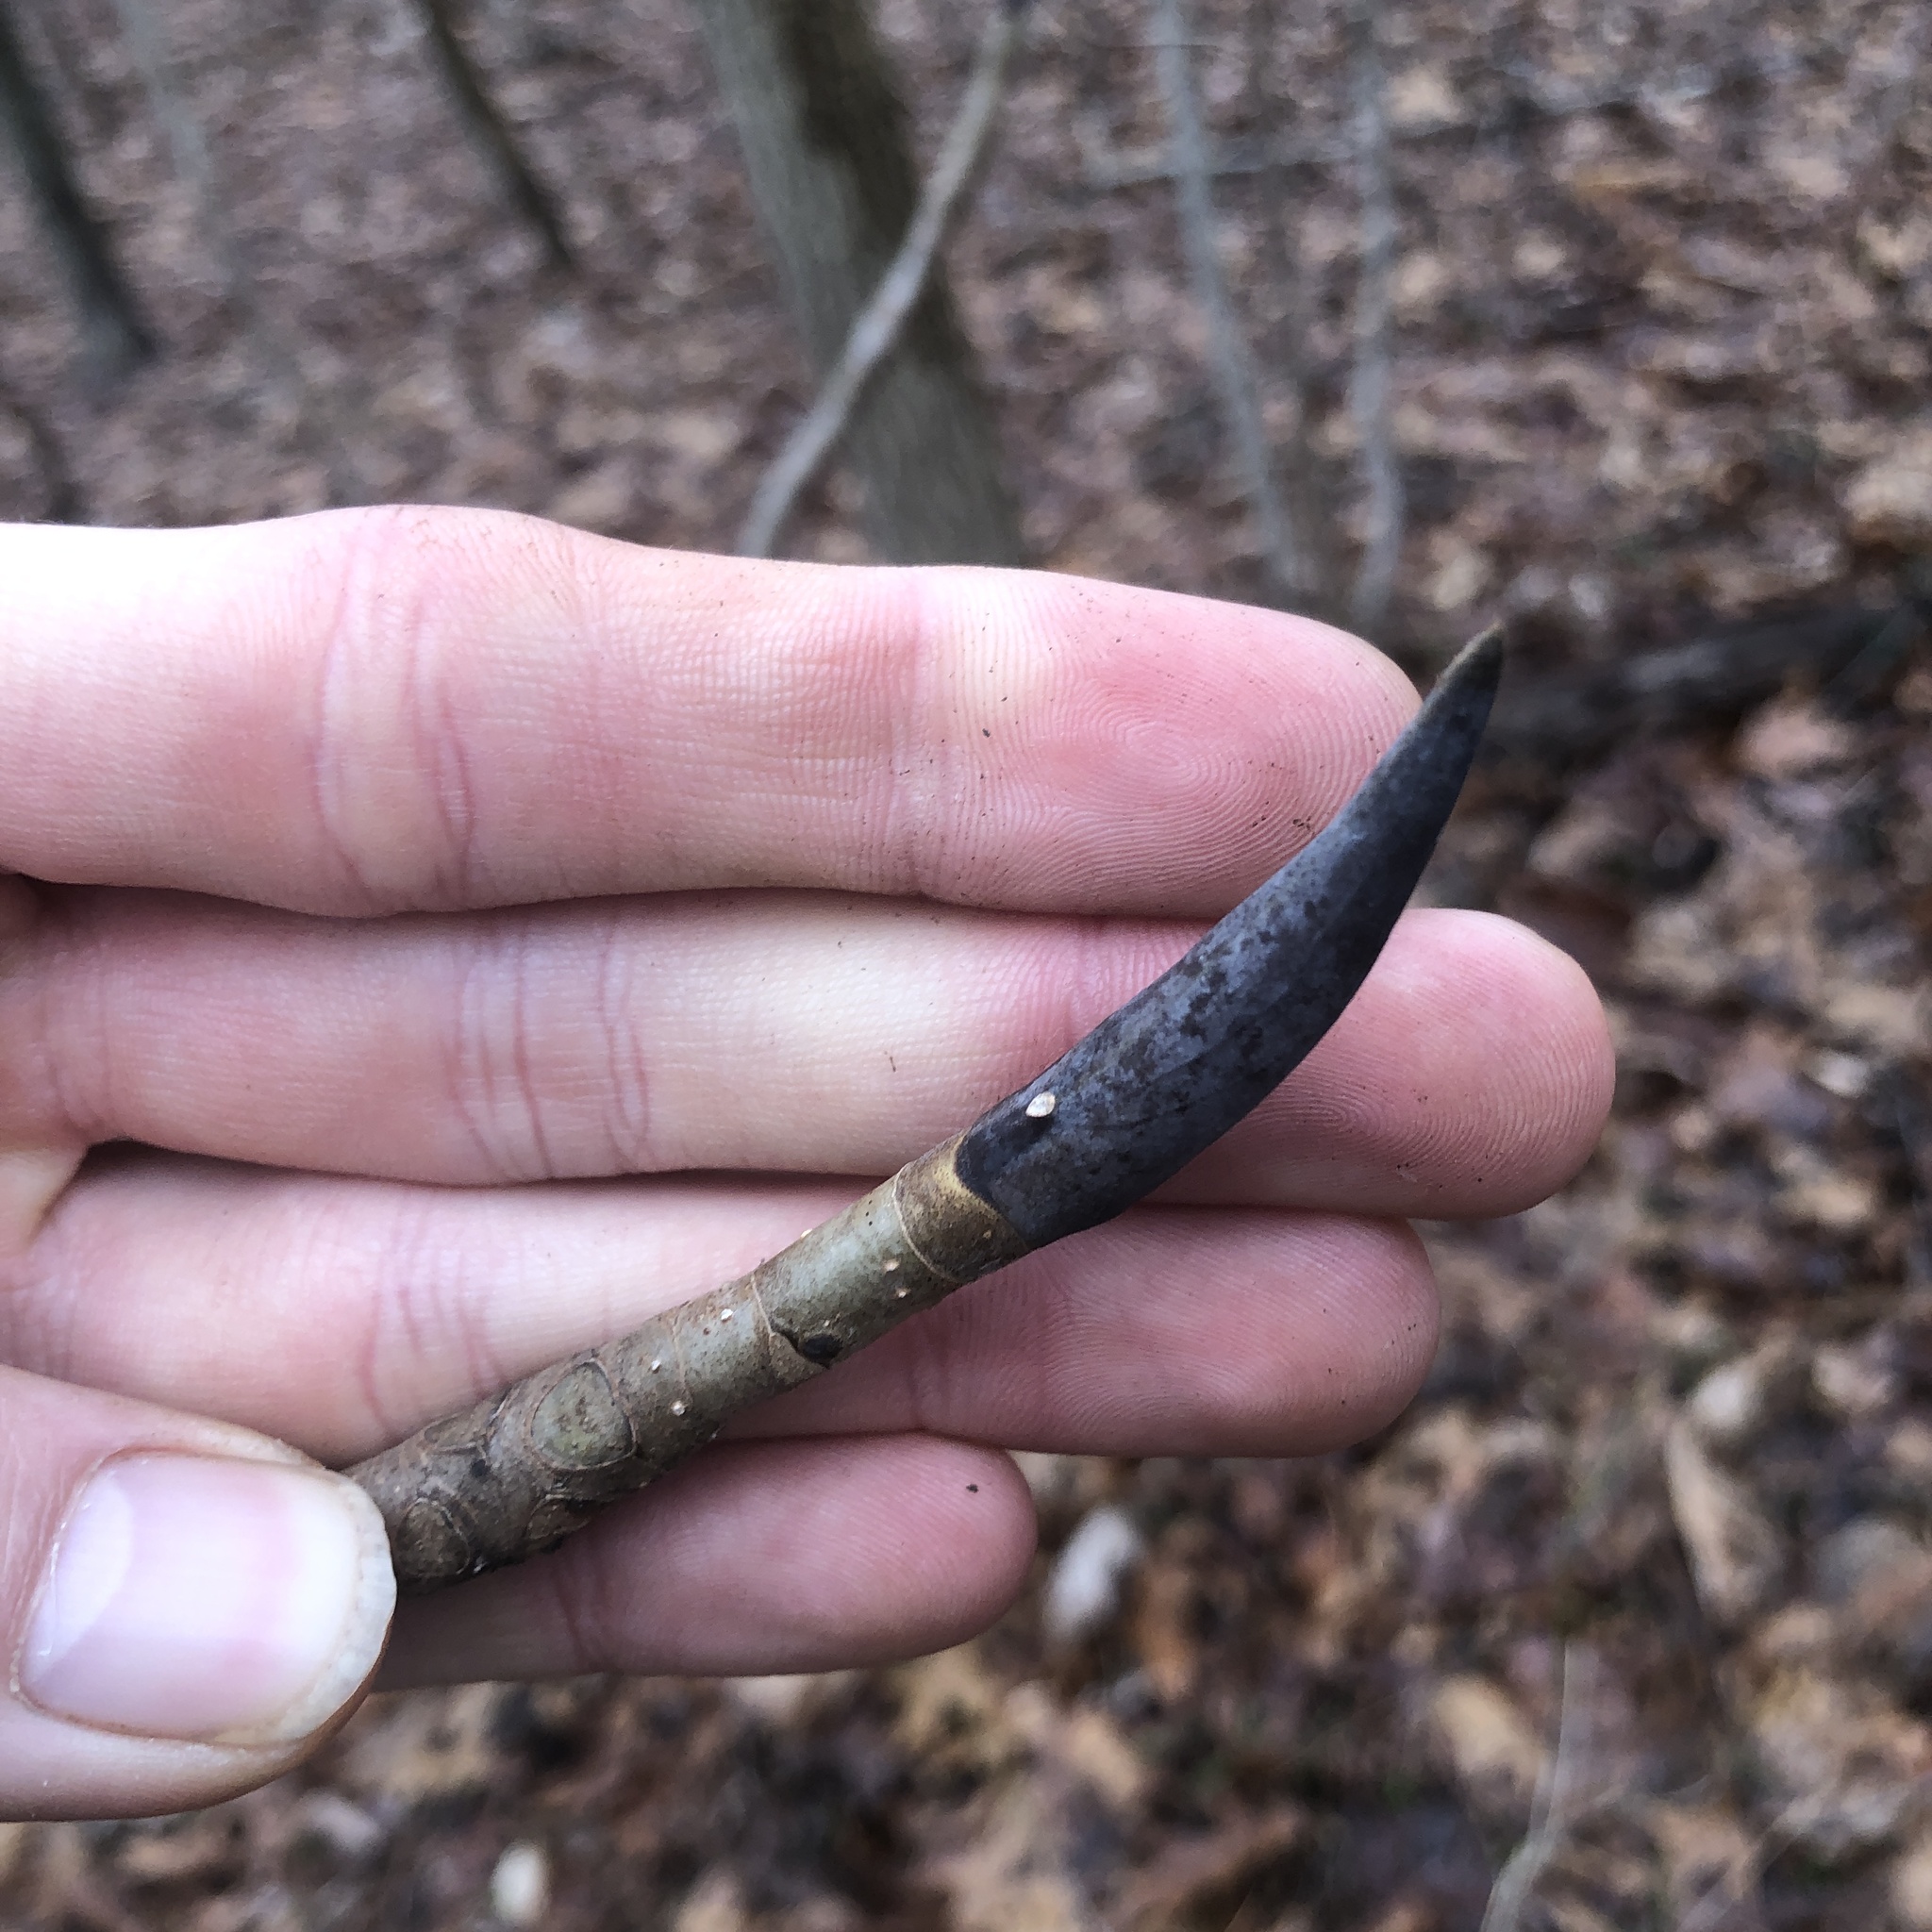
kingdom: Plantae
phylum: Tracheophyta
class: Magnoliopsida
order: Magnoliales
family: Magnoliaceae
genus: Magnolia
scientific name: Magnolia tripetala
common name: Umbrella magnolia
